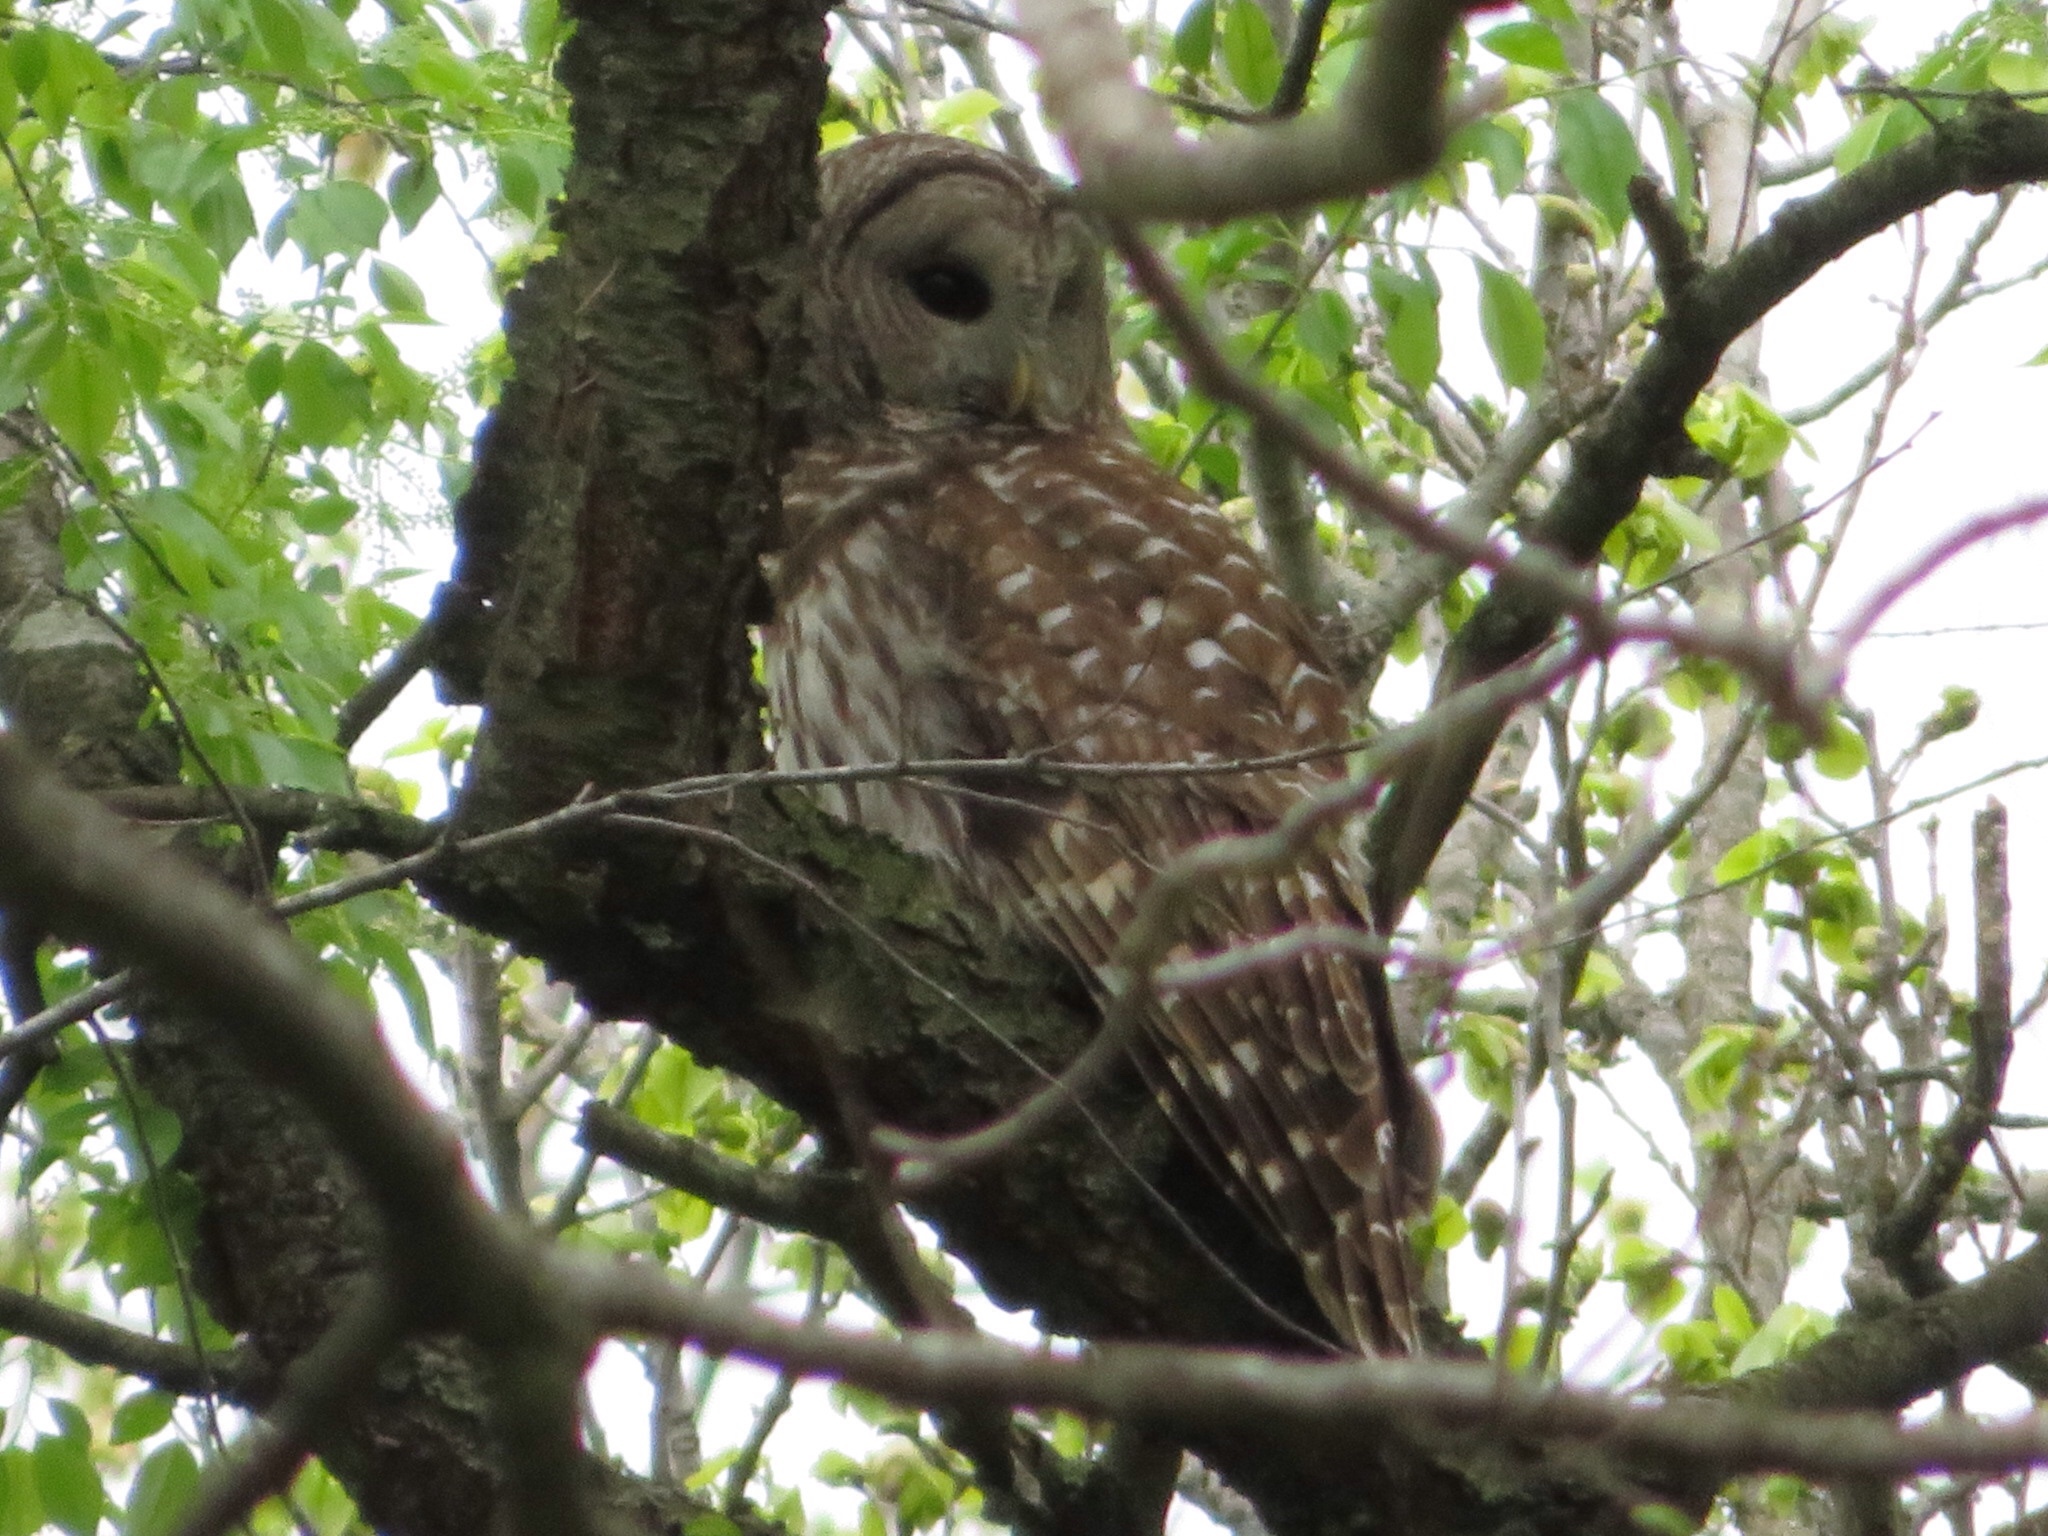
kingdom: Animalia
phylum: Chordata
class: Aves
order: Strigiformes
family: Strigidae
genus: Strix
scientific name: Strix varia
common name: Barred owl
